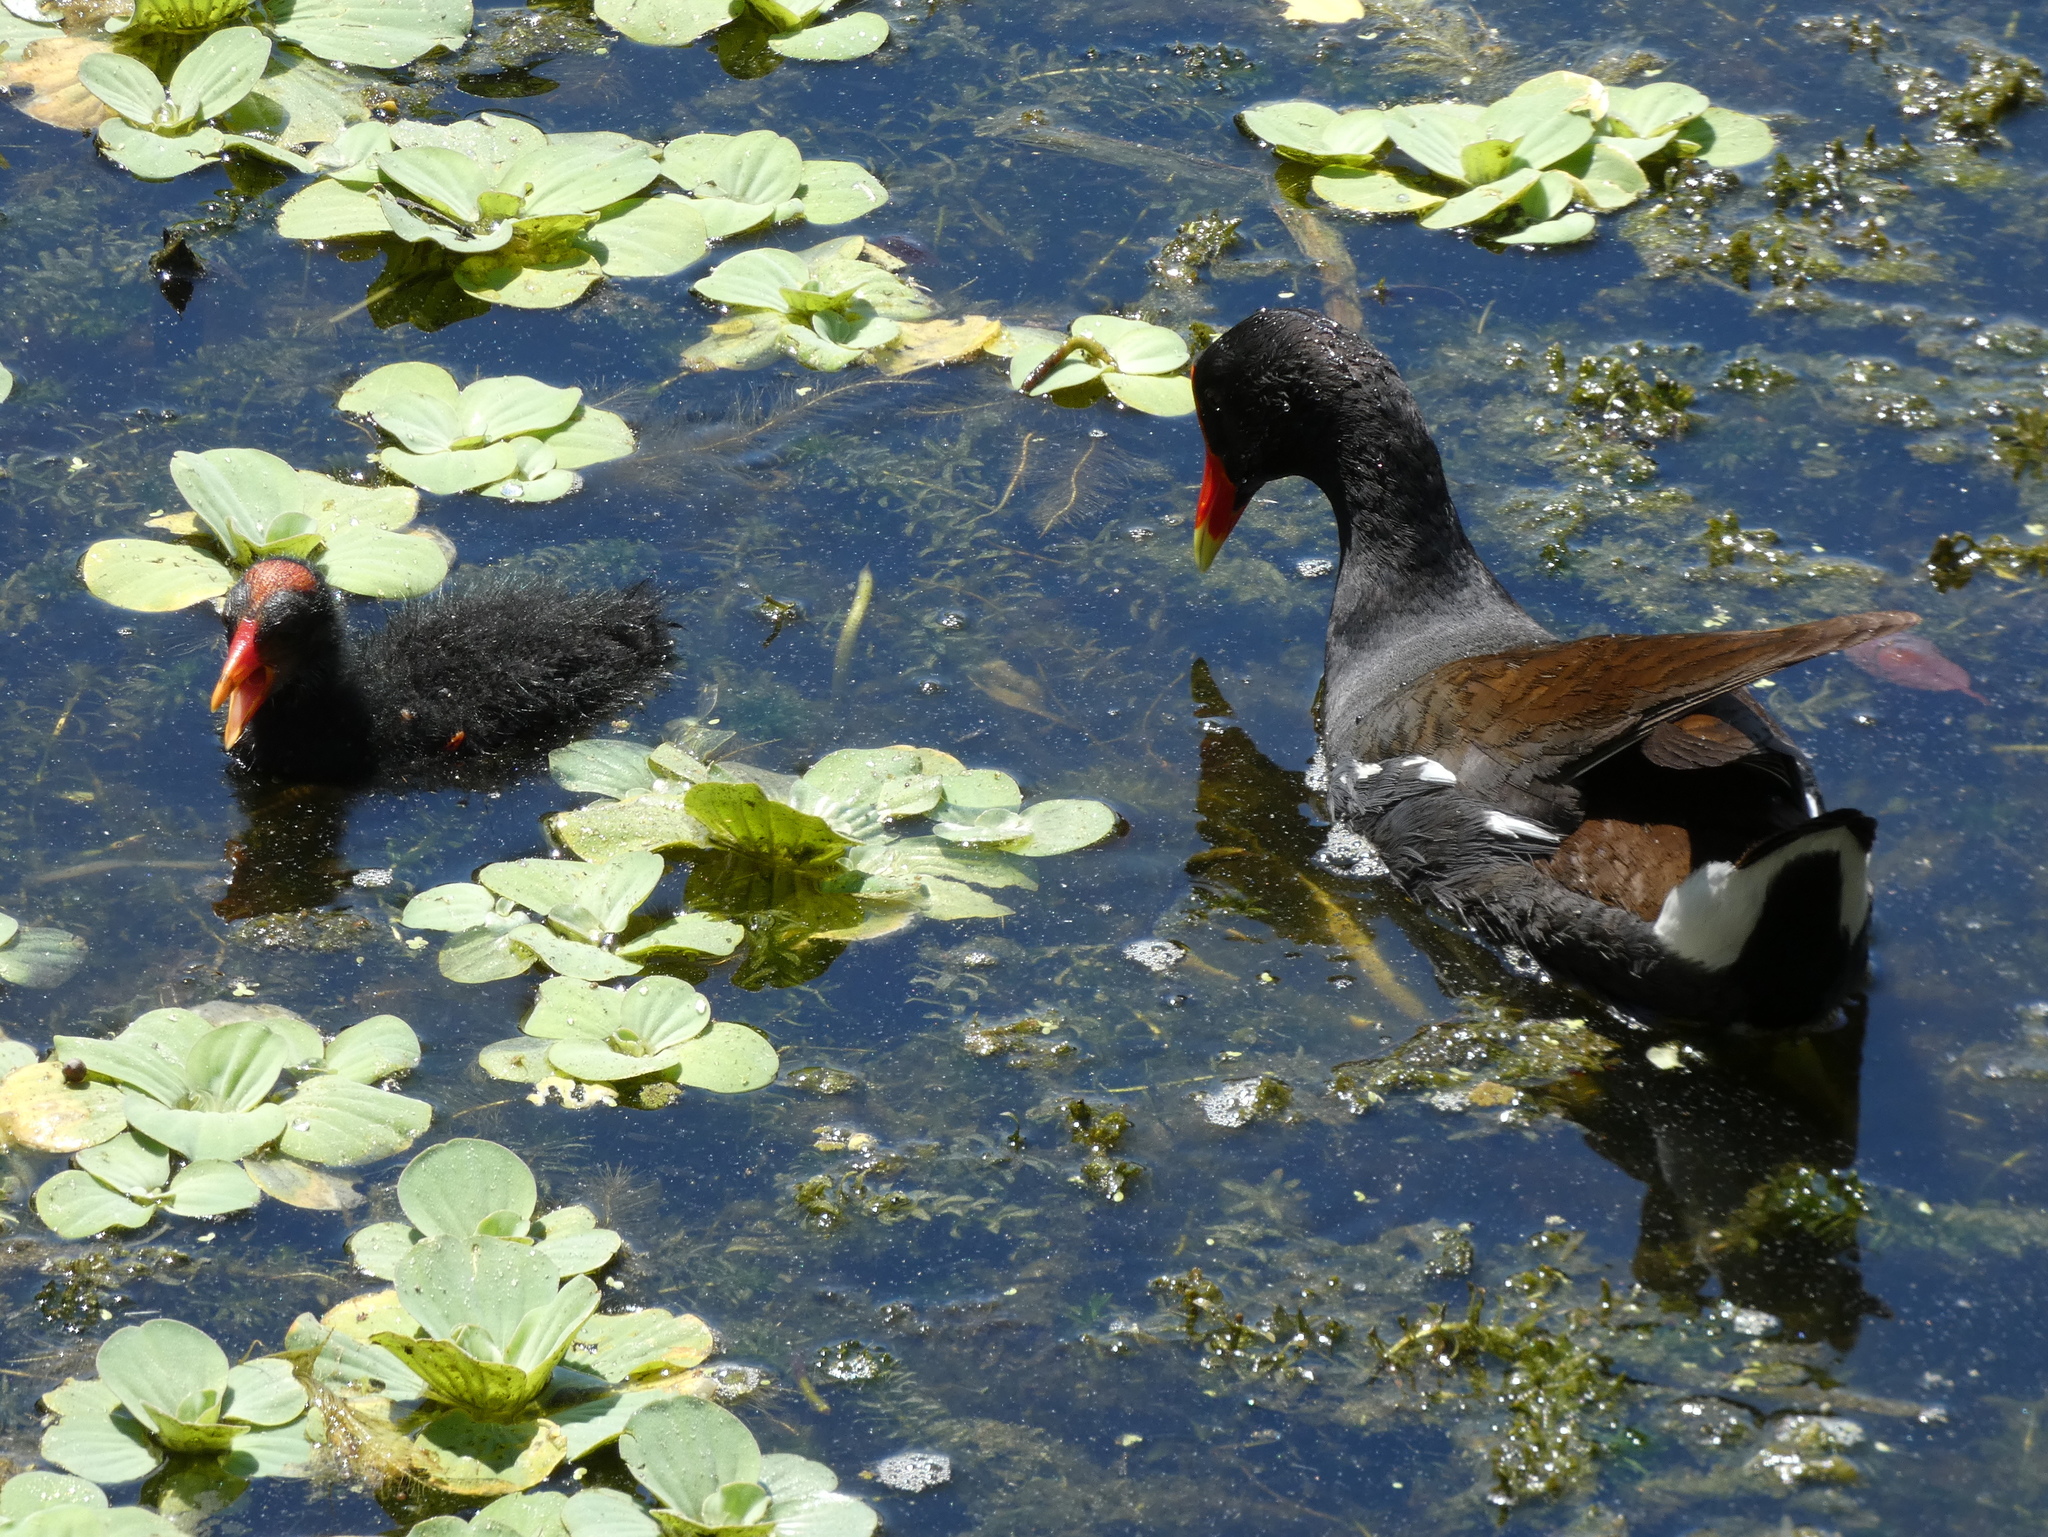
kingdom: Animalia
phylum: Chordata
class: Aves
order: Gruiformes
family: Rallidae
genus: Gallinula
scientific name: Gallinula chloropus
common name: Common moorhen
